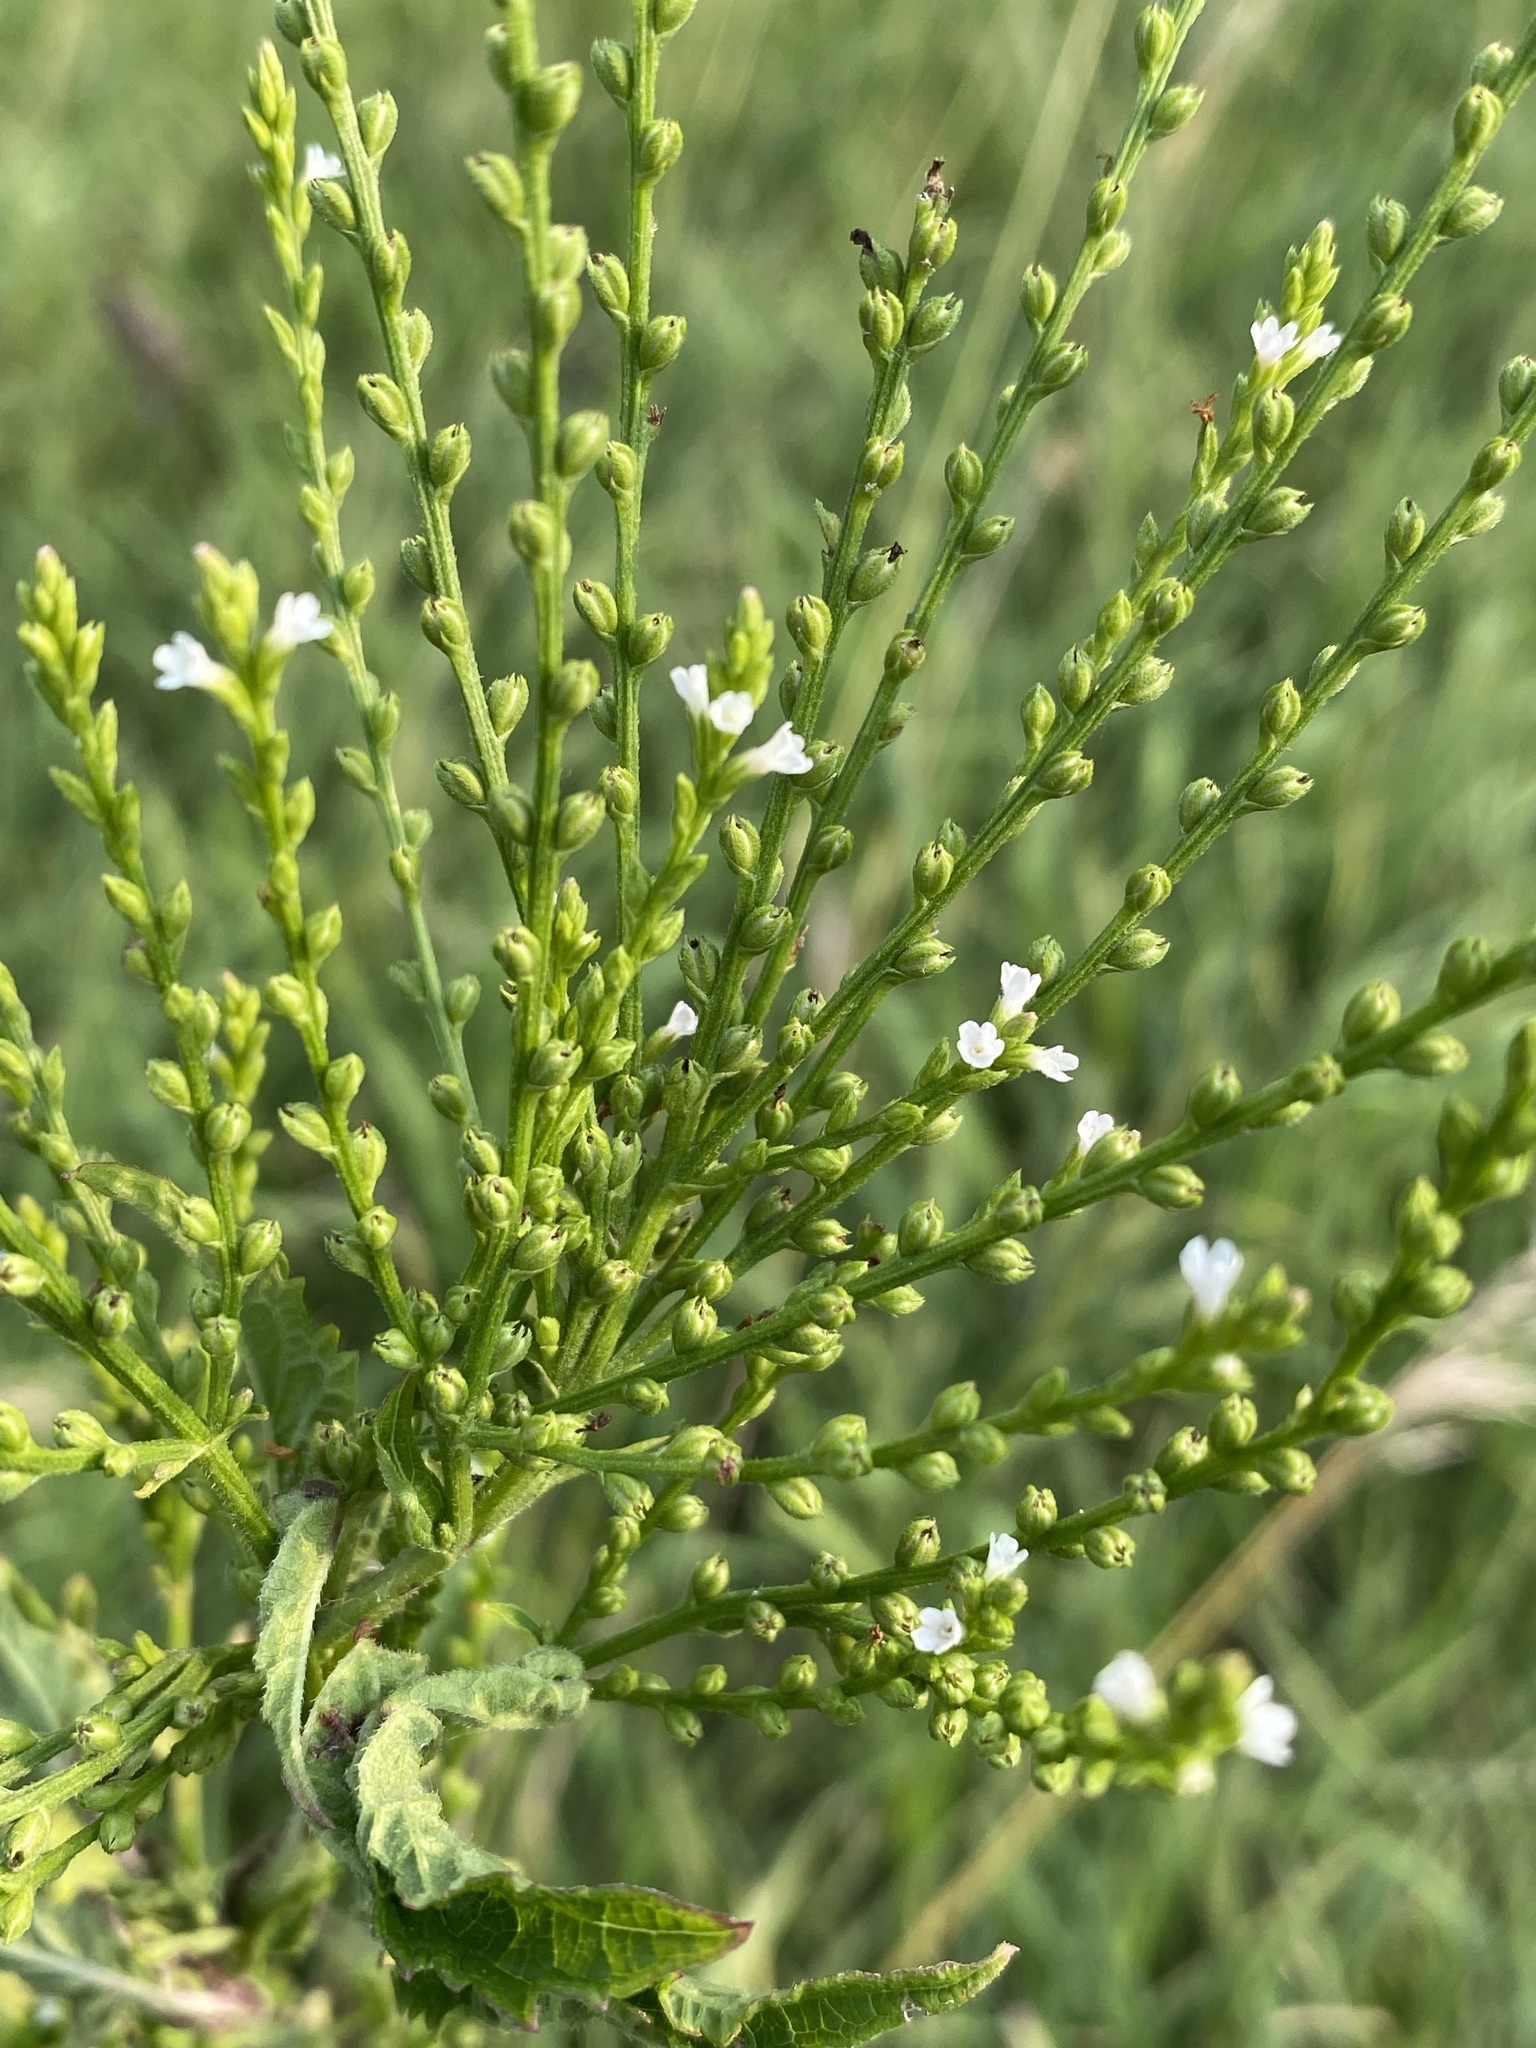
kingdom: Plantae
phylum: Tracheophyta
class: Magnoliopsida
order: Lamiales
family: Verbenaceae
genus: Verbena
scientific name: Verbena urticifolia
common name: Nettle-leaved vervain
